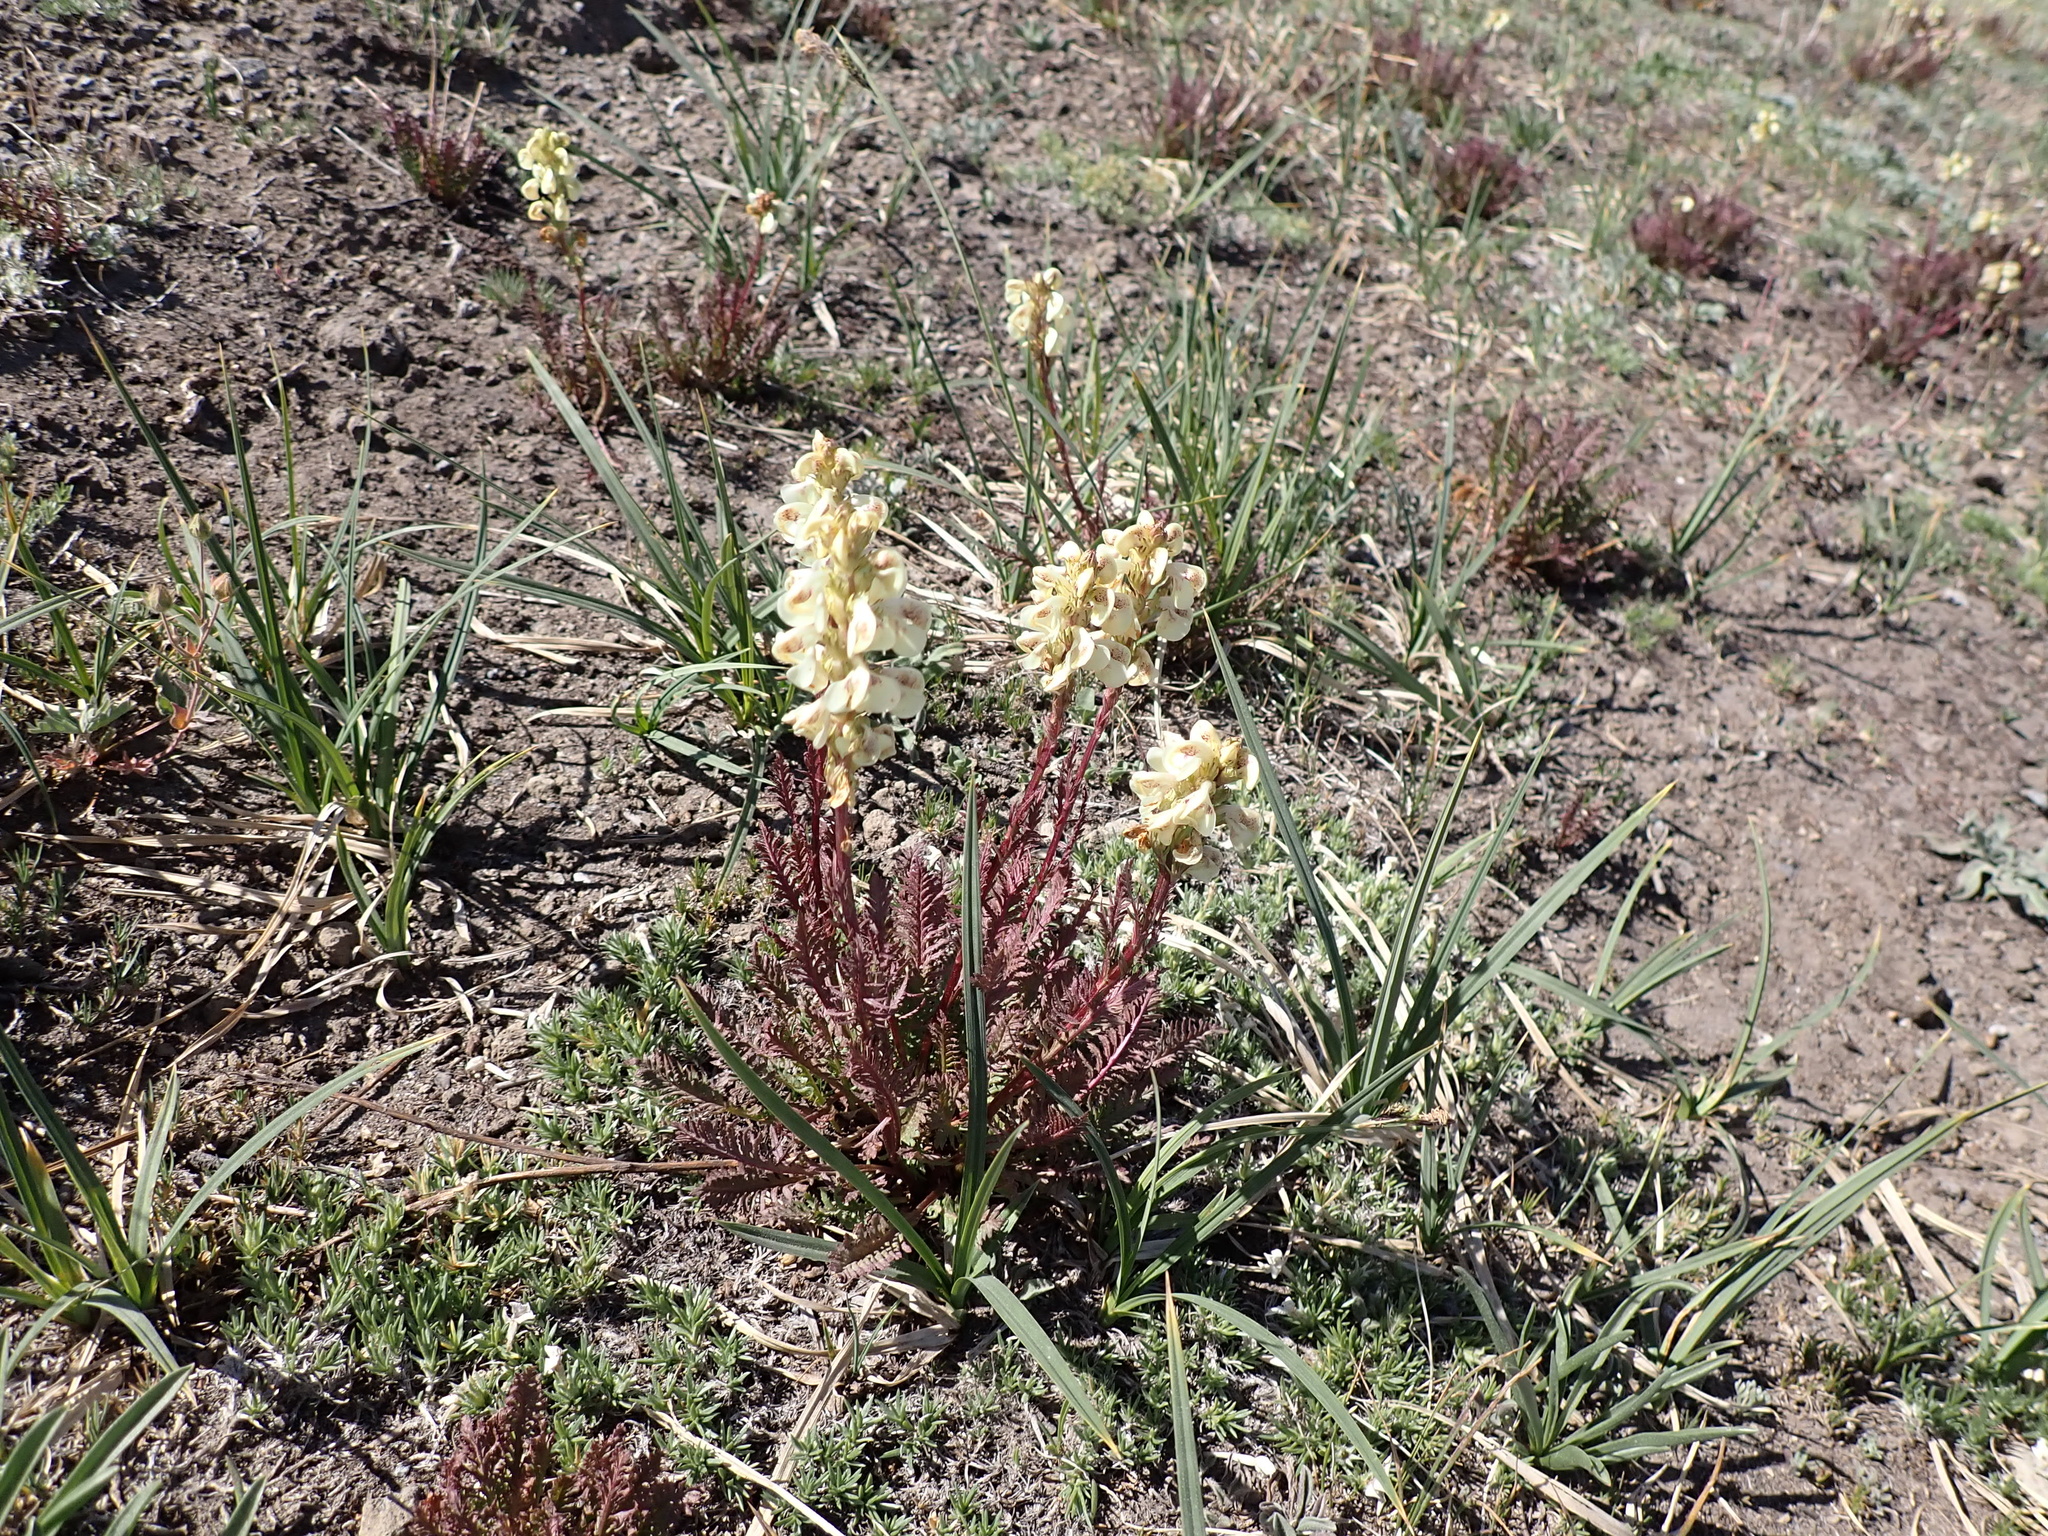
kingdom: Plantae
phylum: Tracheophyta
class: Magnoliopsida
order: Lamiales
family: Orobanchaceae
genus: Pedicularis
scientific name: Pedicularis contorta
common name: Coiled lousewort
